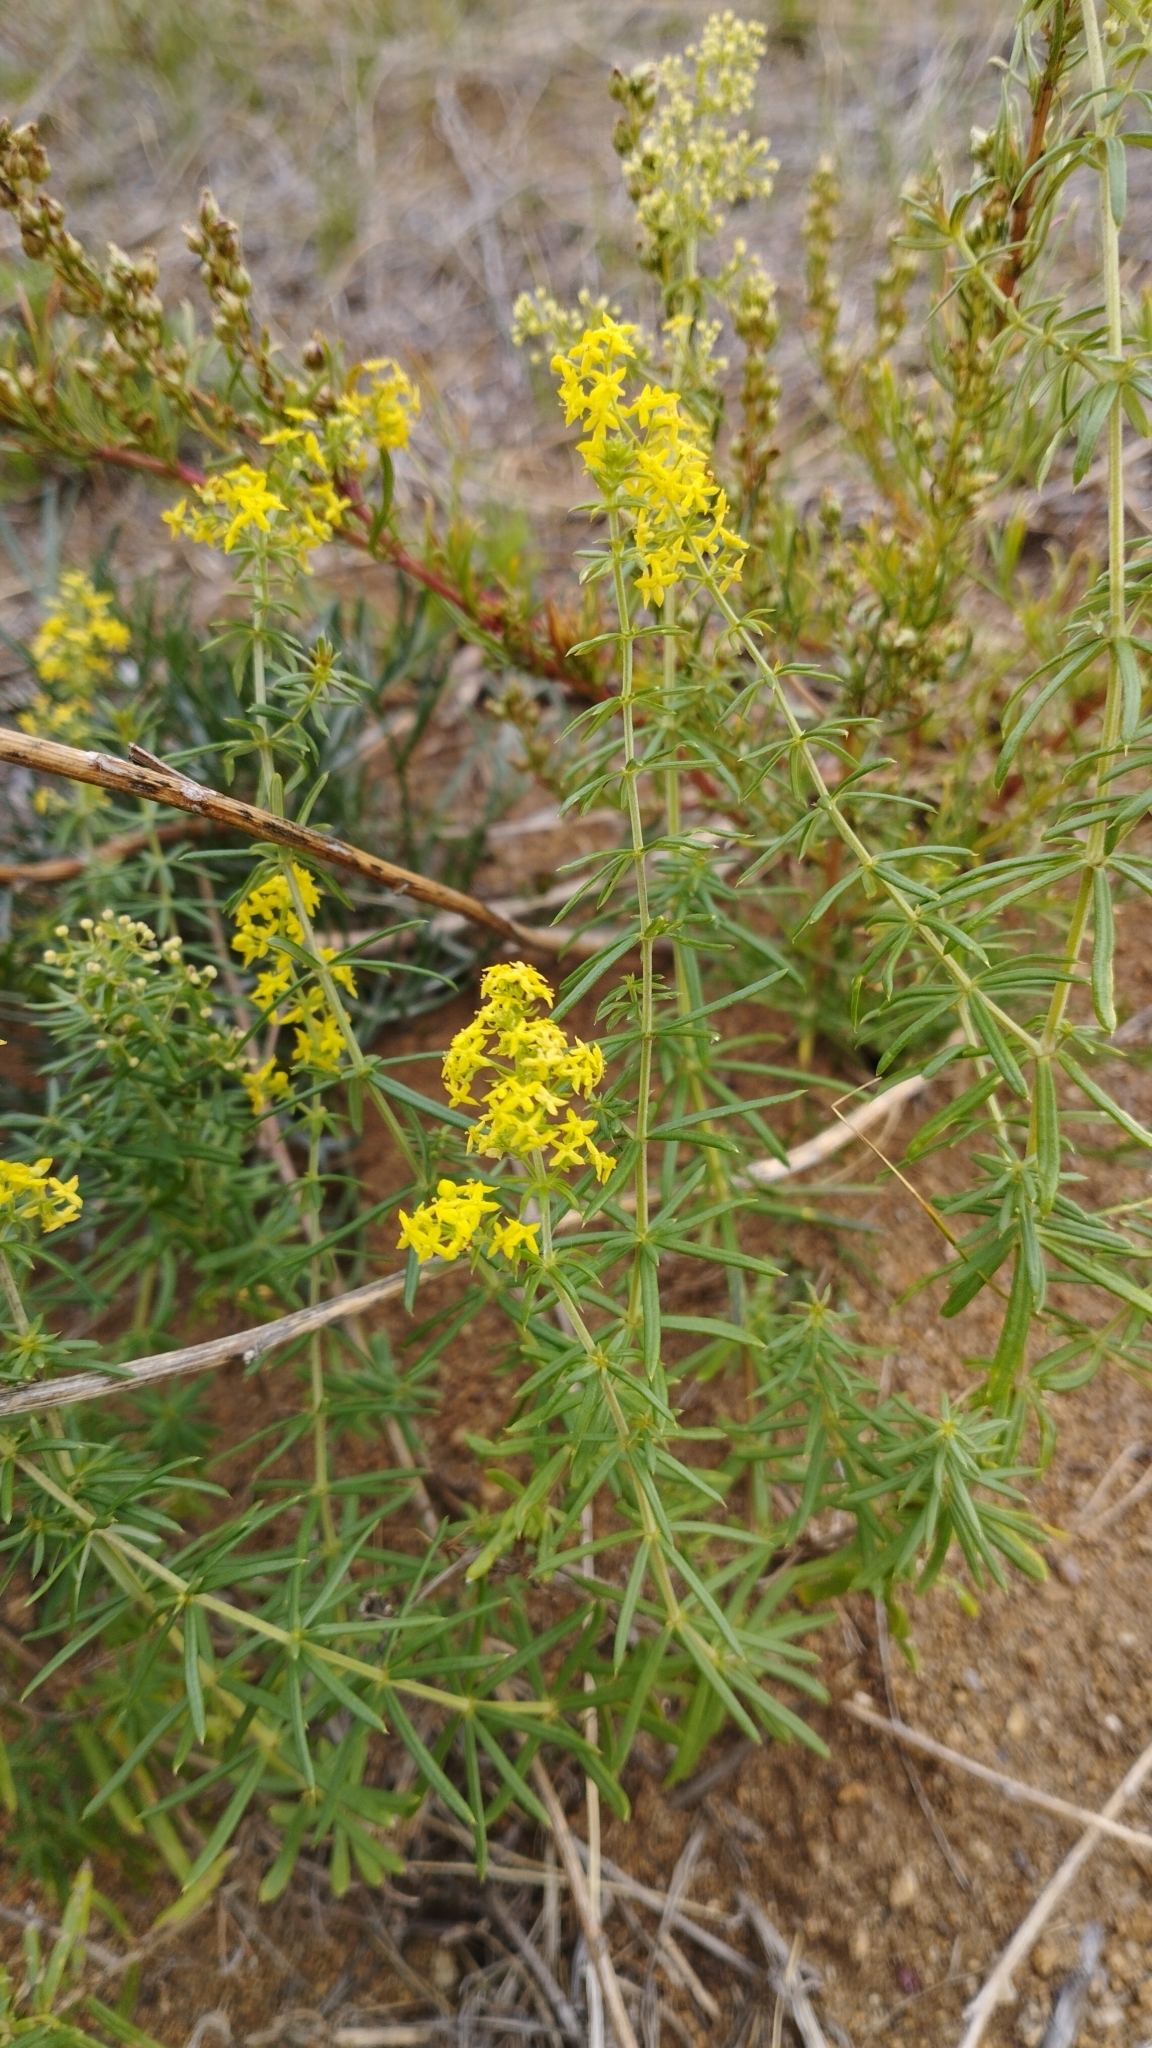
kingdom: Plantae
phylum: Tracheophyta
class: Magnoliopsida
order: Gentianales
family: Rubiaceae
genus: Galium
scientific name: Galium verum
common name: Lady's bedstraw
